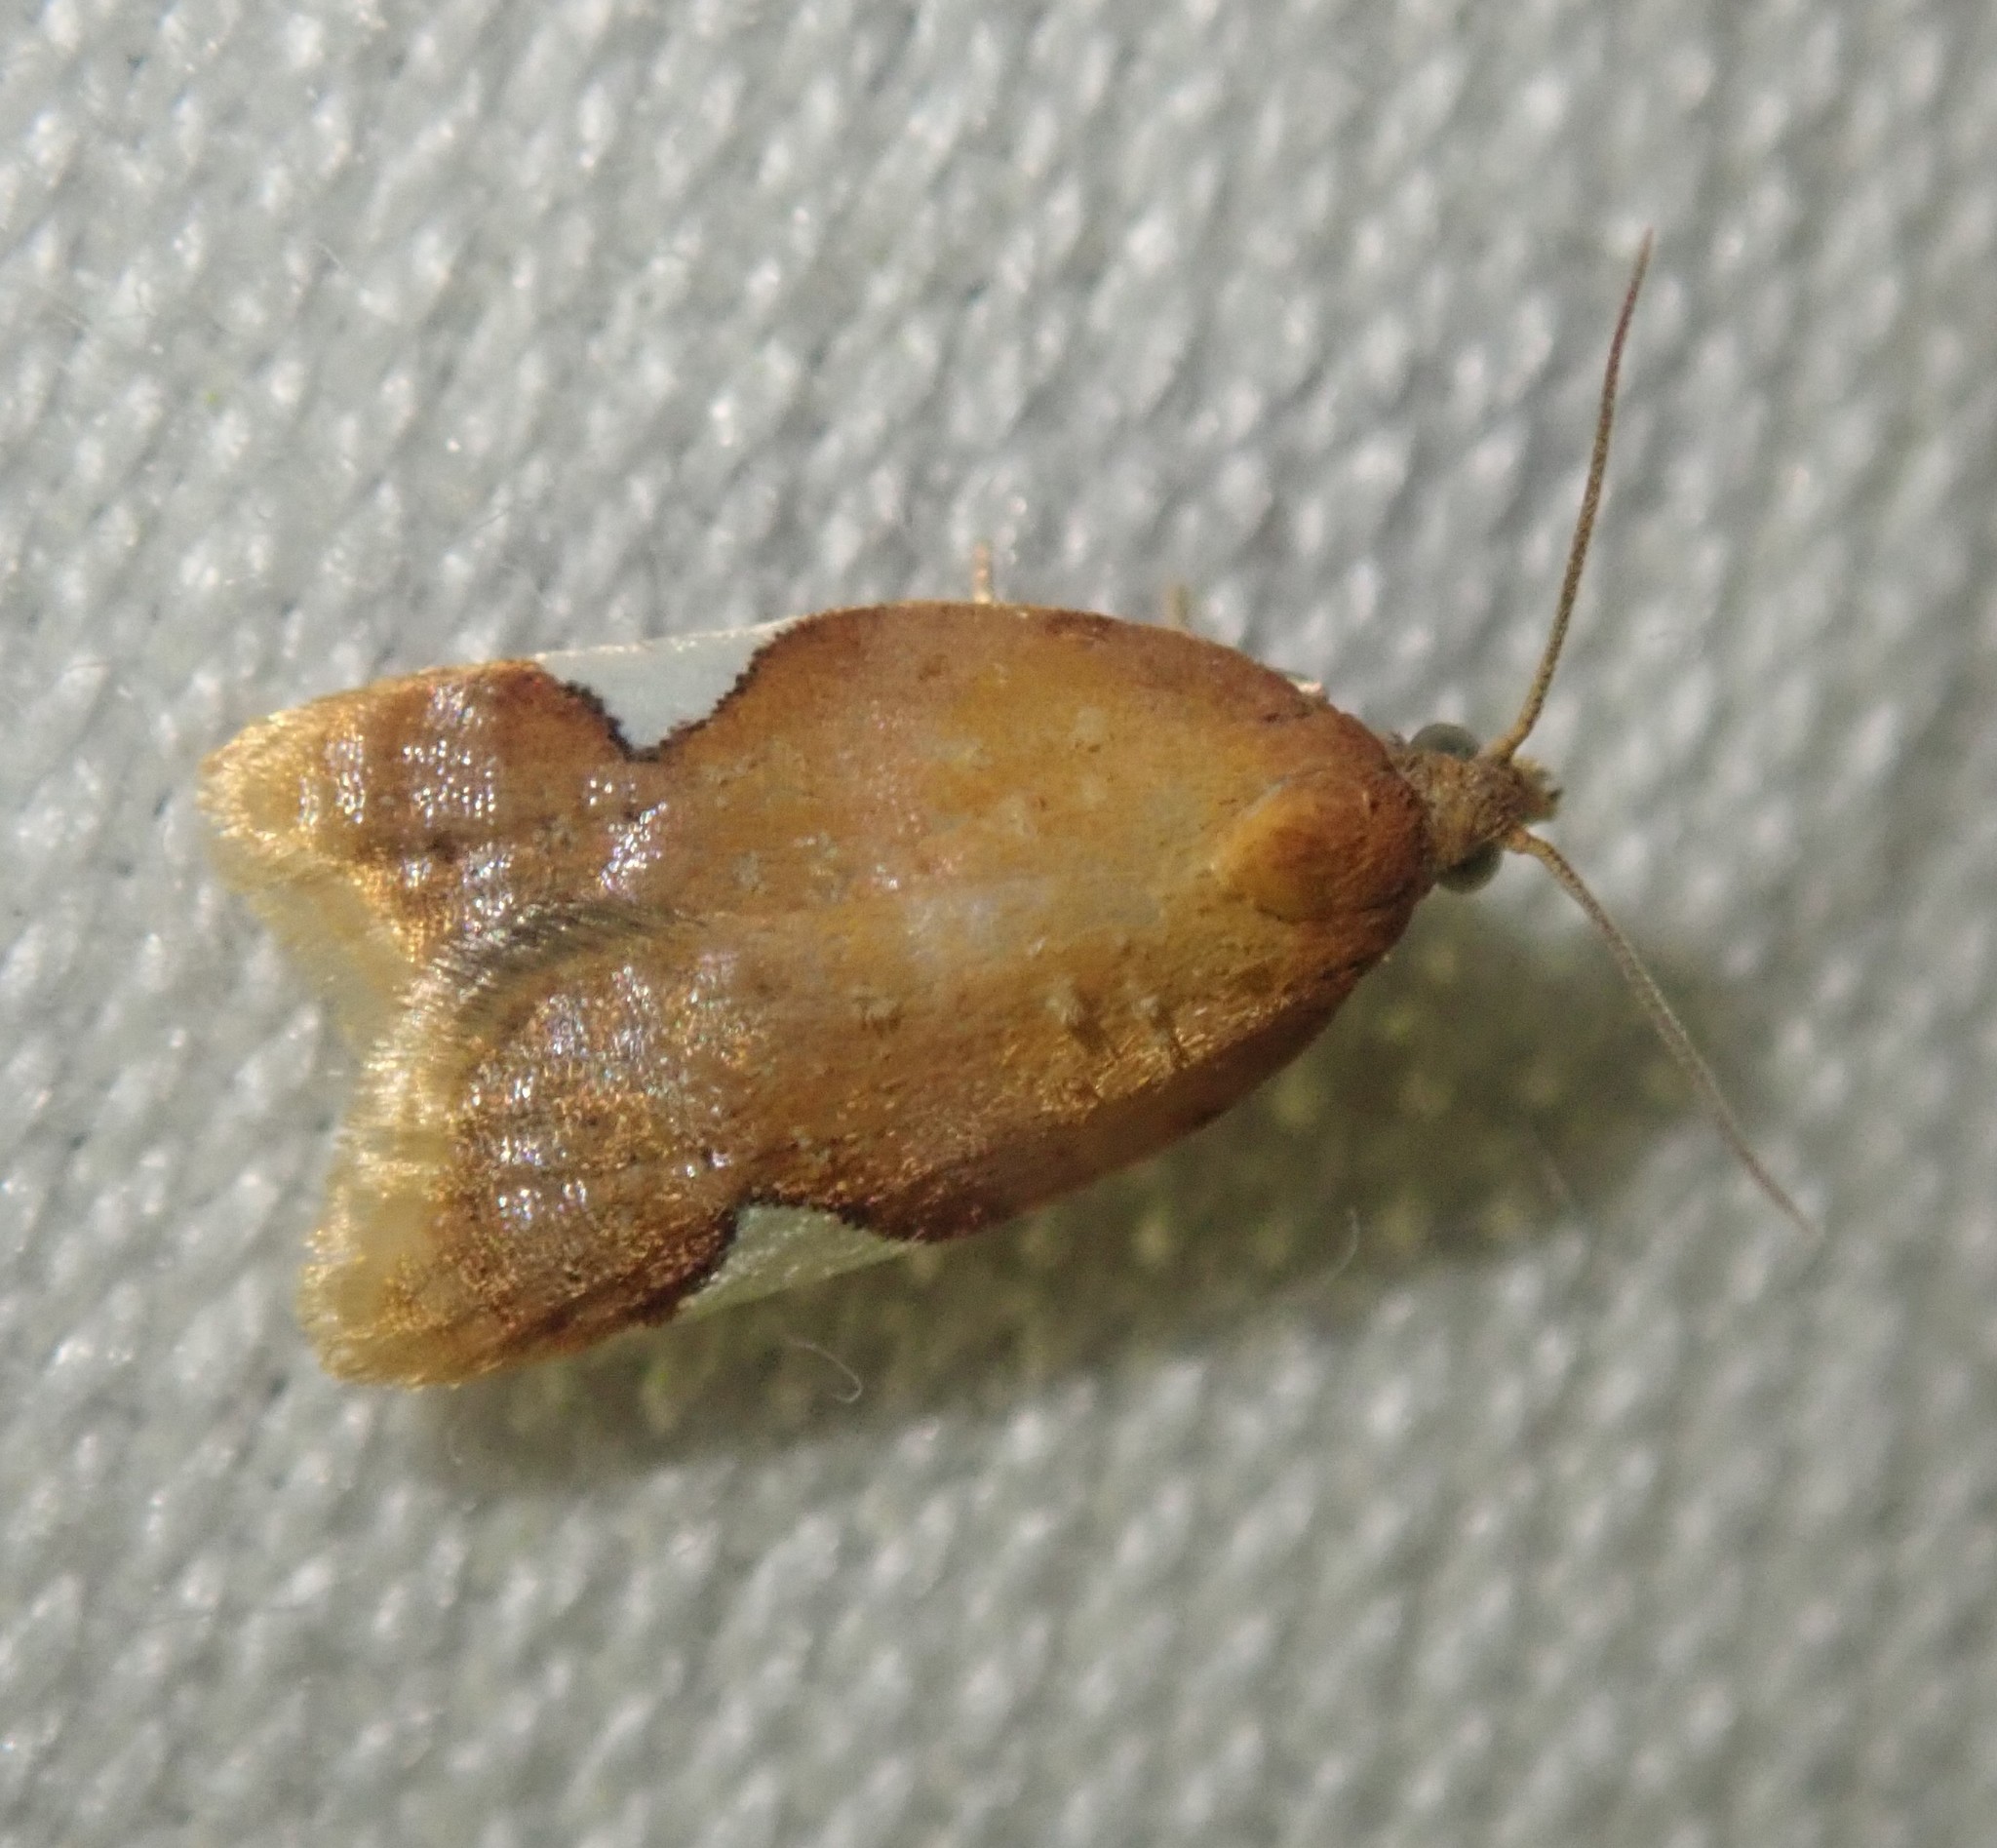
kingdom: Animalia
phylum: Arthropoda
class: Insecta
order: Lepidoptera
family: Tortricidae
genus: Acleris
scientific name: Acleris holmiana
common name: Golden leafroller moth
